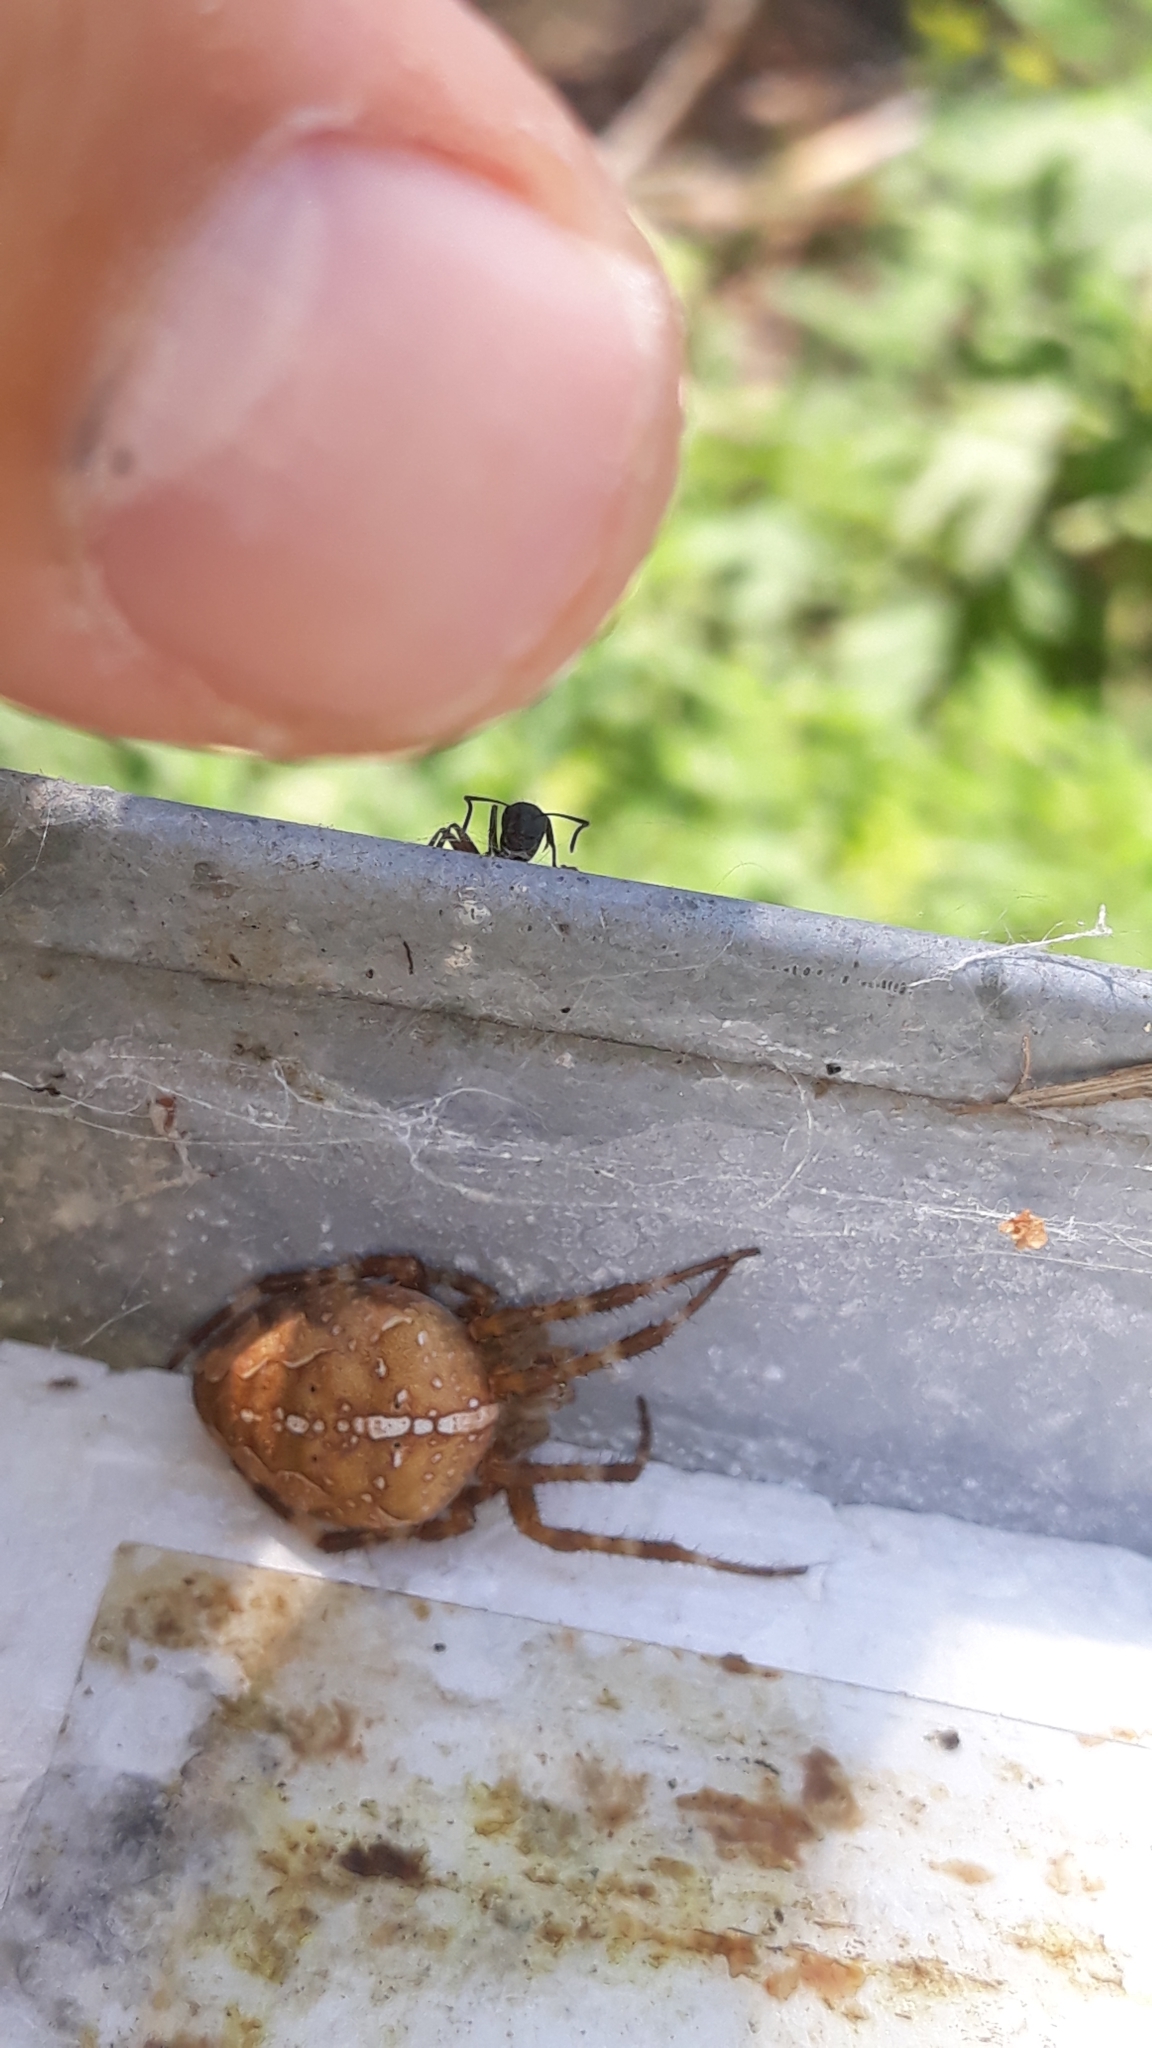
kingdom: Animalia
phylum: Arthropoda
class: Arachnida
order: Araneae
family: Araneidae
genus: Araneus
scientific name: Araneus diadematus
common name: Cross orbweaver
